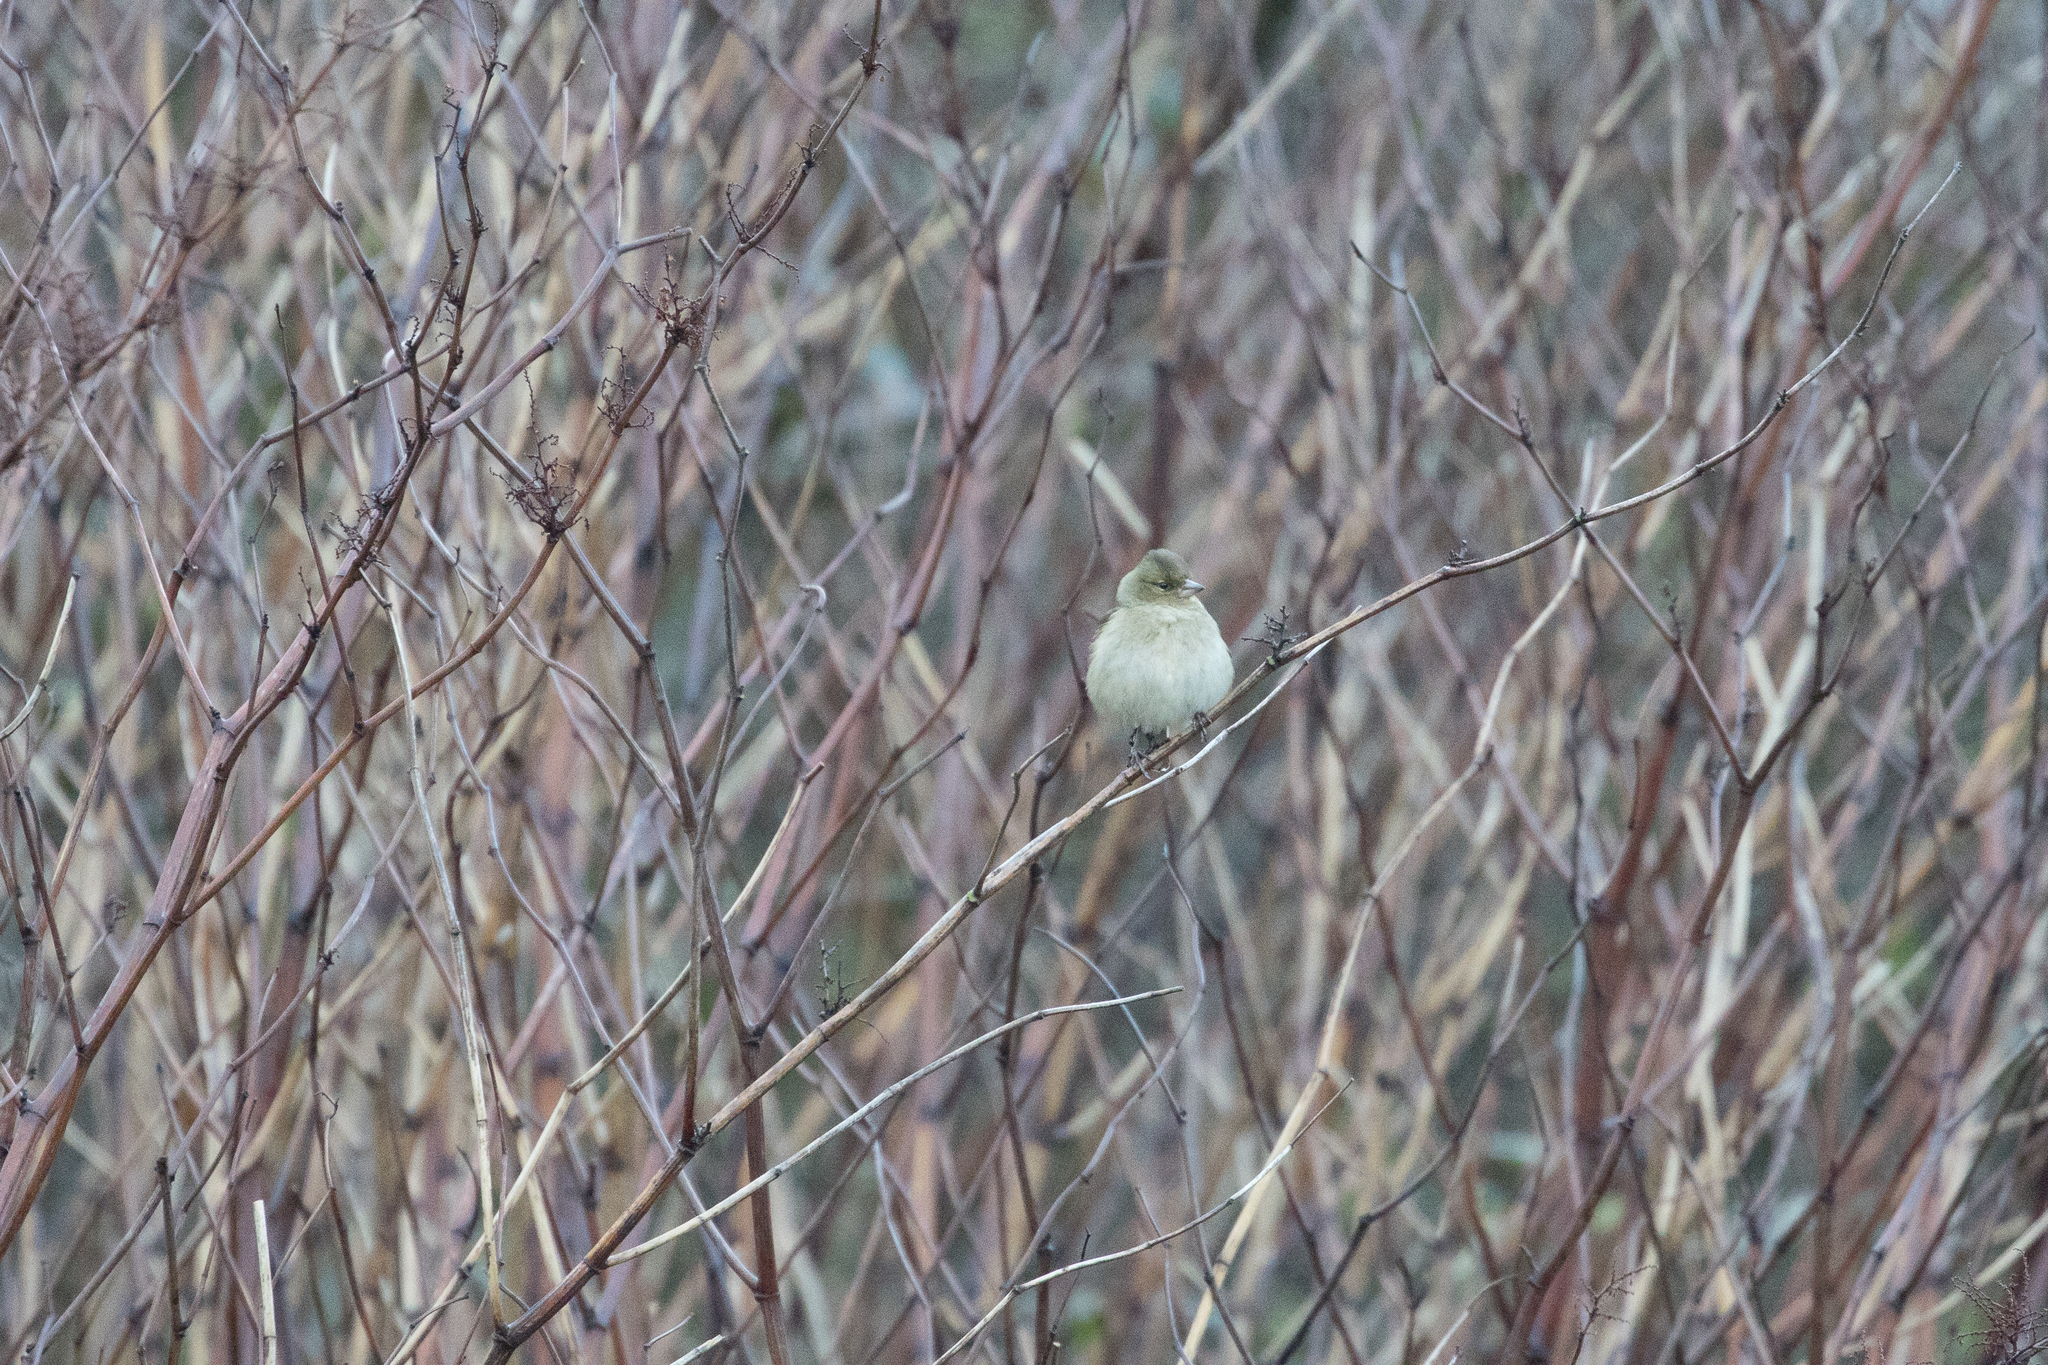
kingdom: Animalia
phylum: Chordata
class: Aves
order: Passeriformes
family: Fringillidae
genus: Fringilla
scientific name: Fringilla coelebs
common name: Common chaffinch
